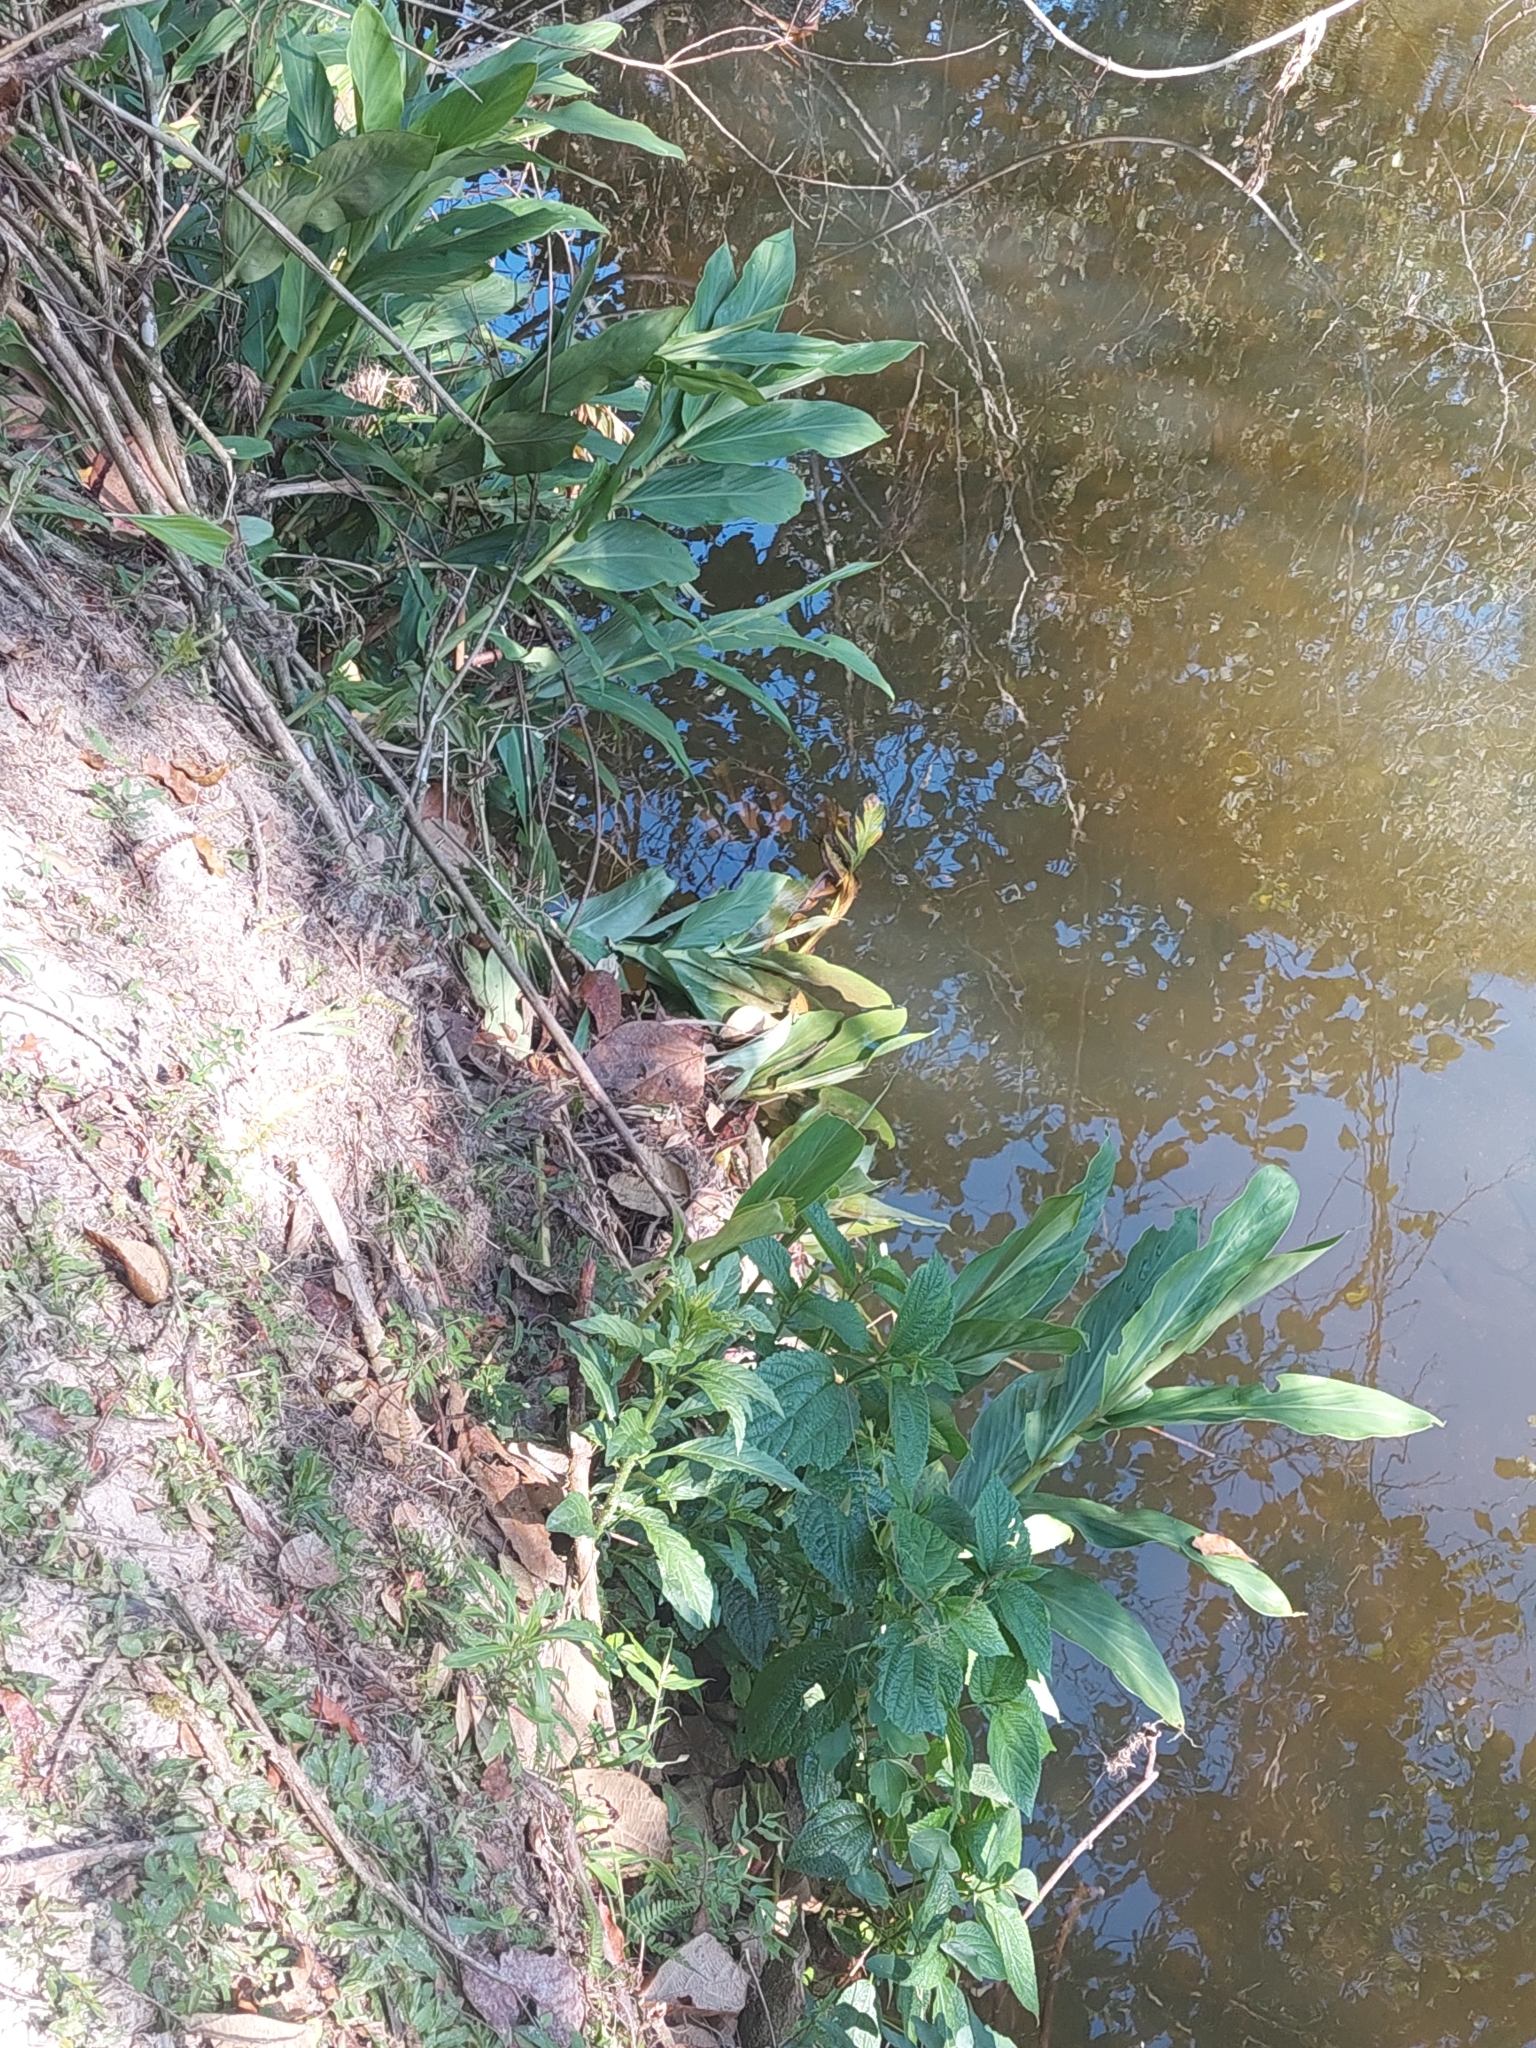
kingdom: Plantae
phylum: Tracheophyta
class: Liliopsida
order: Zingiberales
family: Zingiberaceae
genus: Hedychium
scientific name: Hedychium coronarium
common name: White garland-lily
